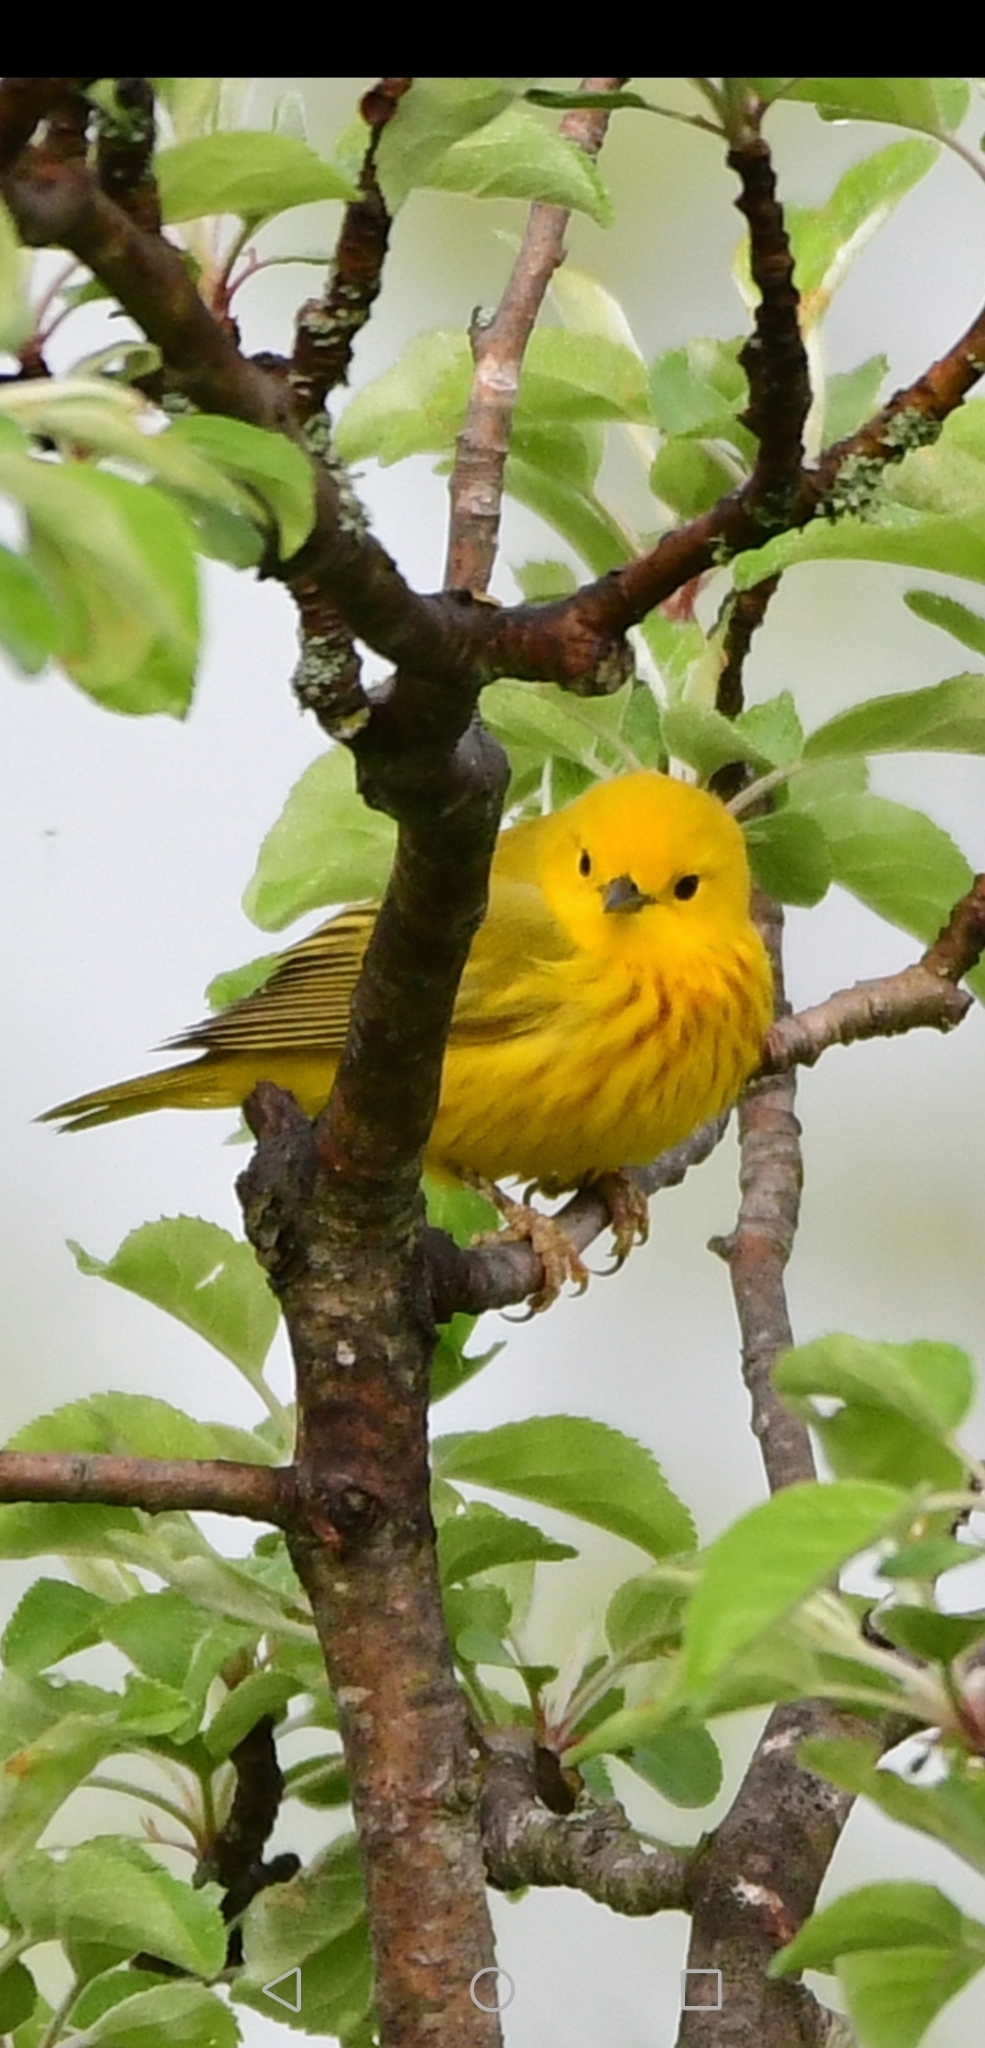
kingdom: Animalia
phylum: Chordata
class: Aves
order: Passeriformes
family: Parulidae
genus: Setophaga
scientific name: Setophaga petechia
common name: Yellow warbler
